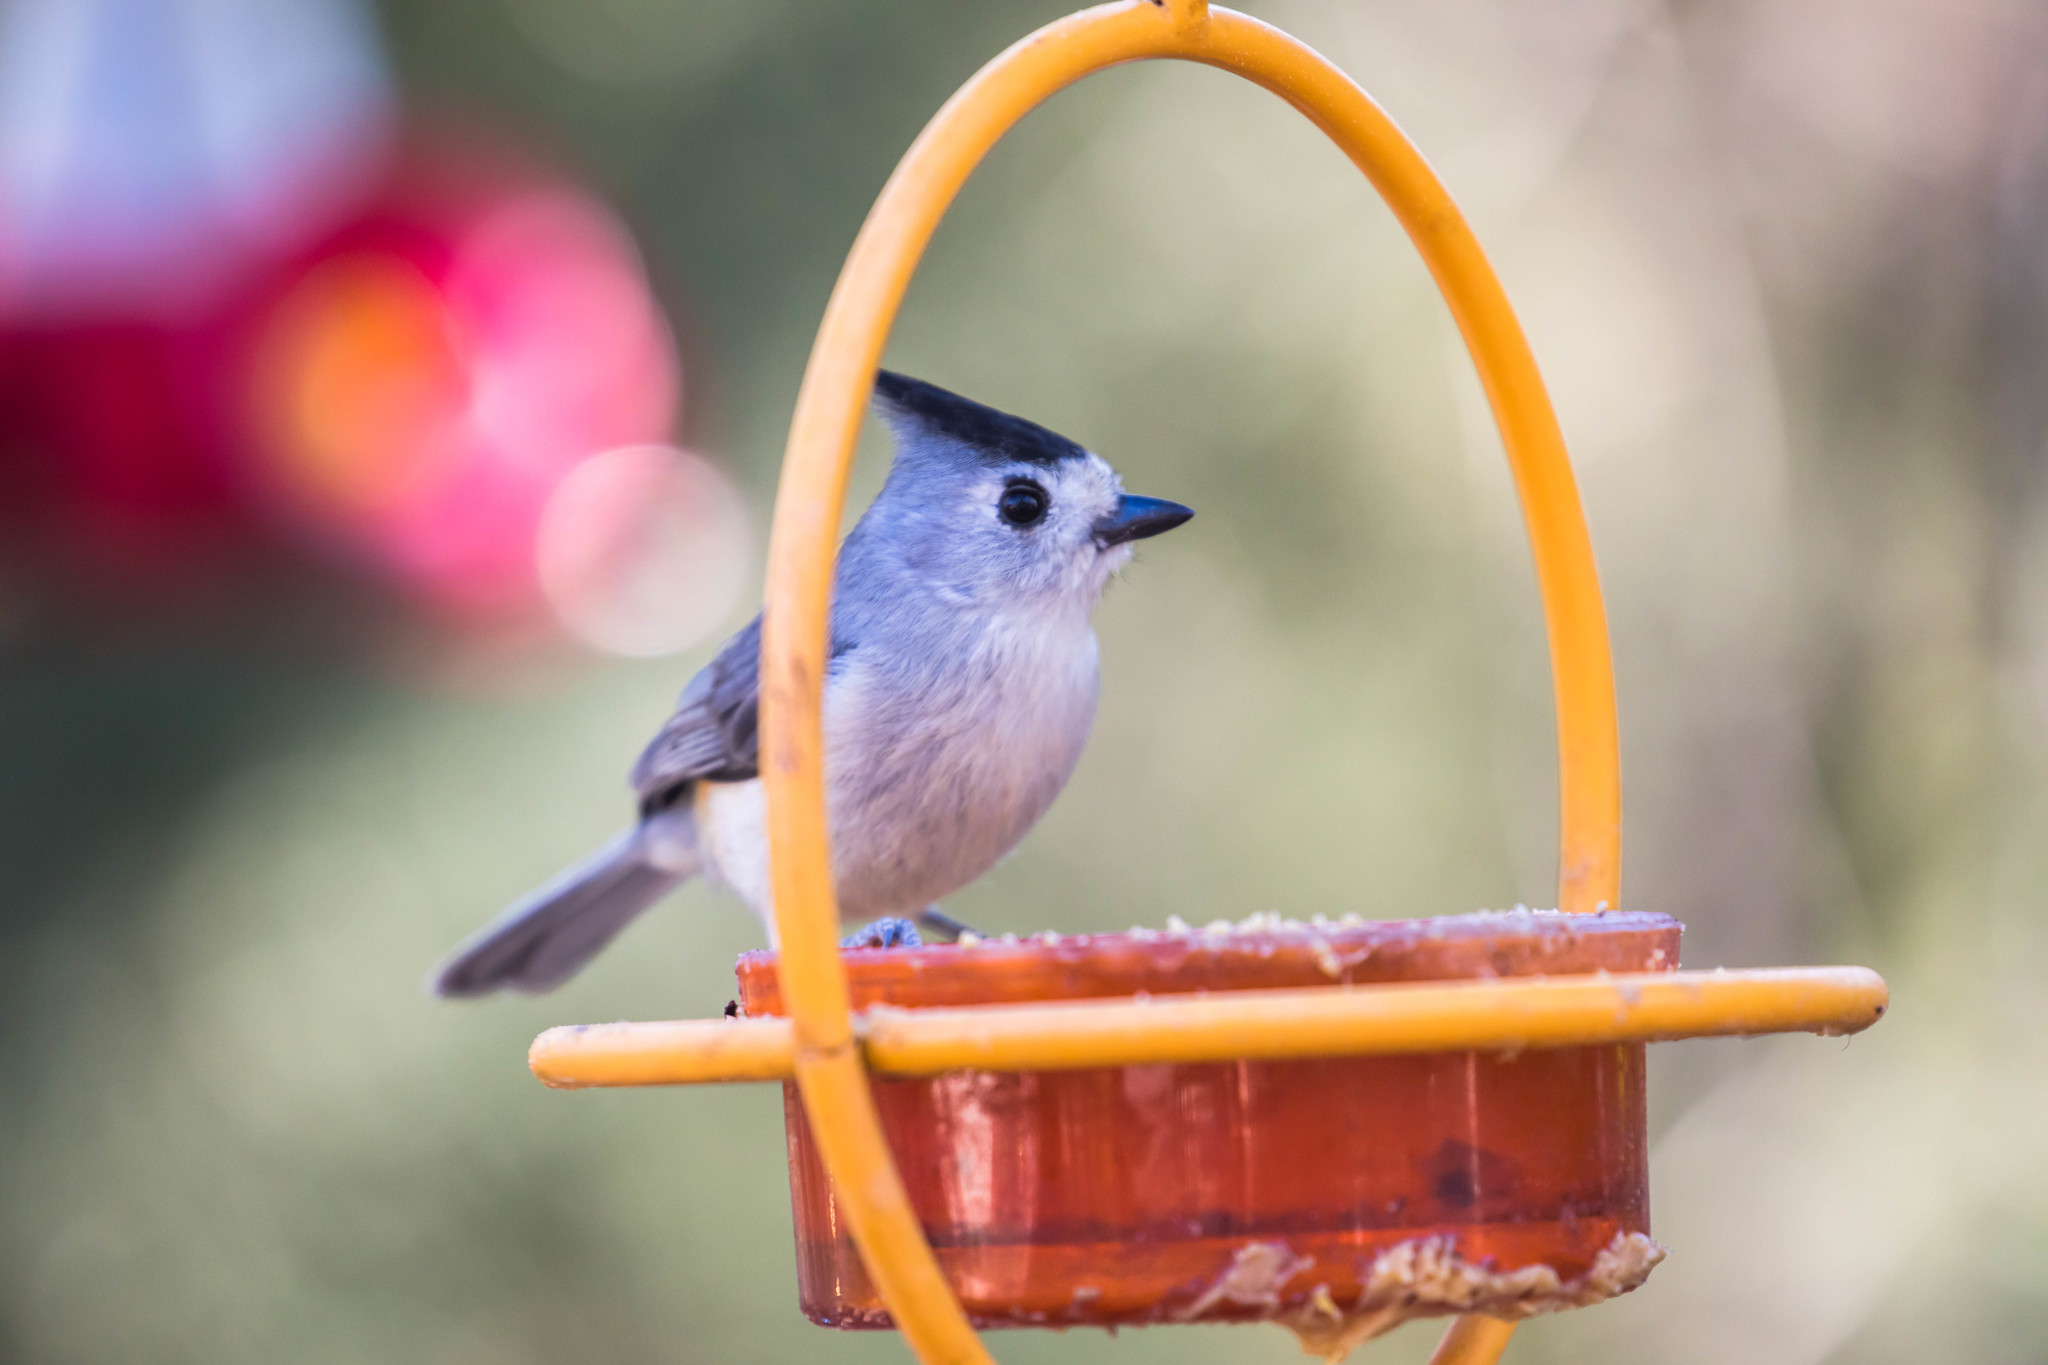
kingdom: Animalia
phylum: Chordata
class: Aves
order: Passeriformes
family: Paridae
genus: Baeolophus
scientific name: Baeolophus atricristatus
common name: Black-crested titmouse
